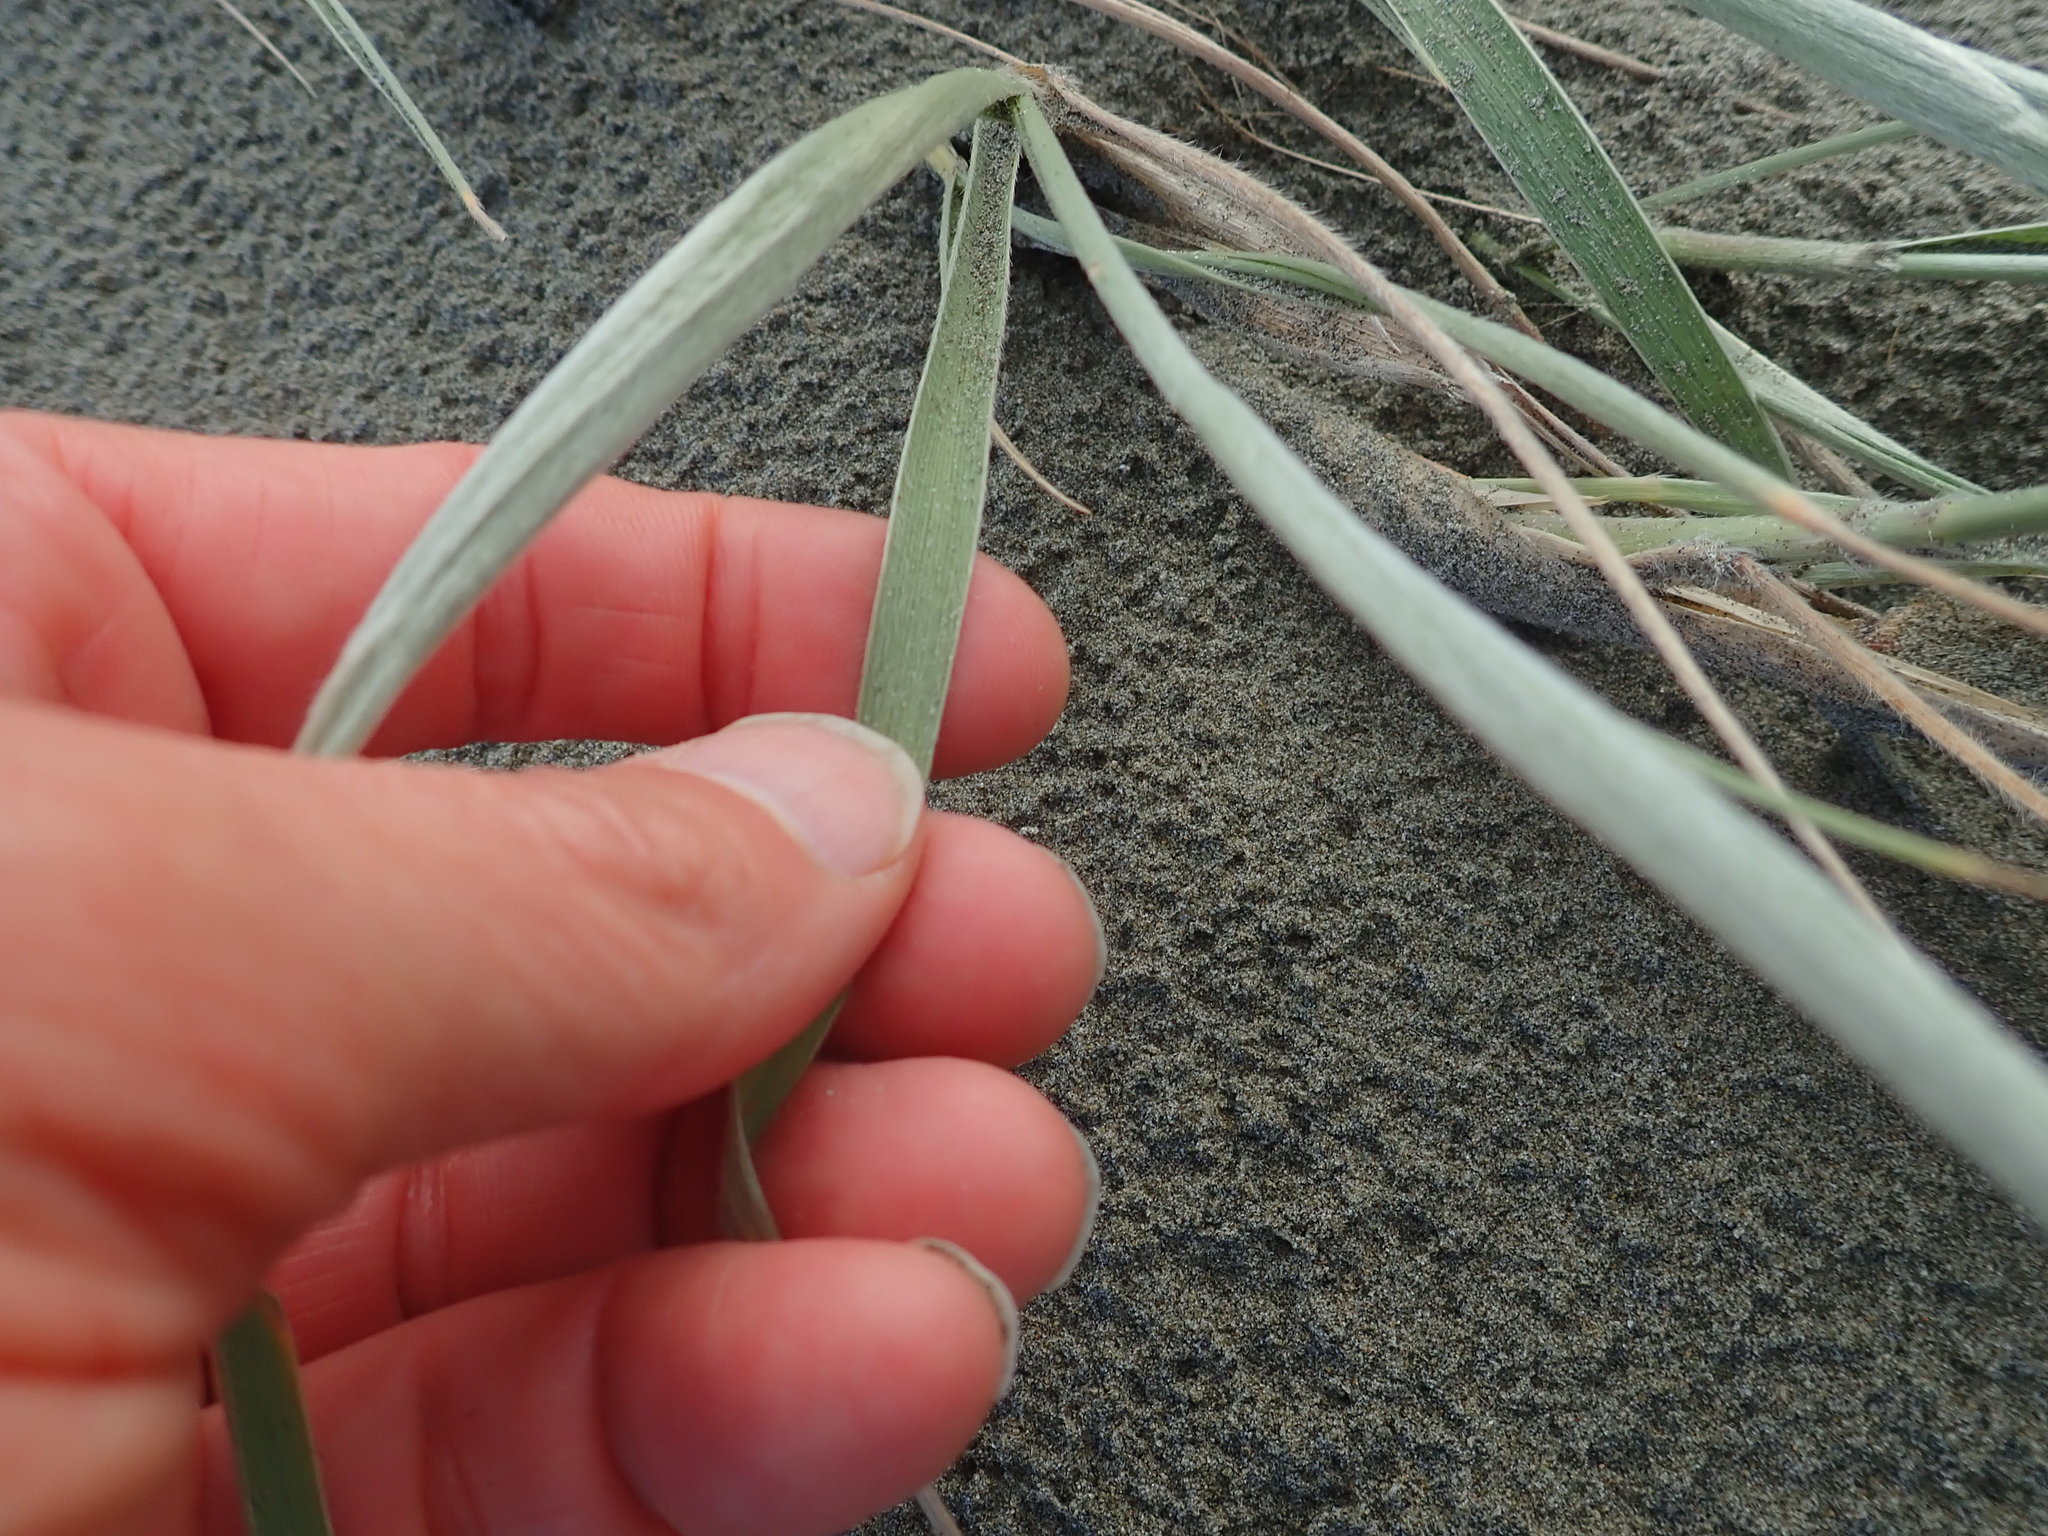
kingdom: Plantae
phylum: Tracheophyta
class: Liliopsida
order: Poales
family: Poaceae
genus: Spinifex
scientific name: Spinifex sericeus
